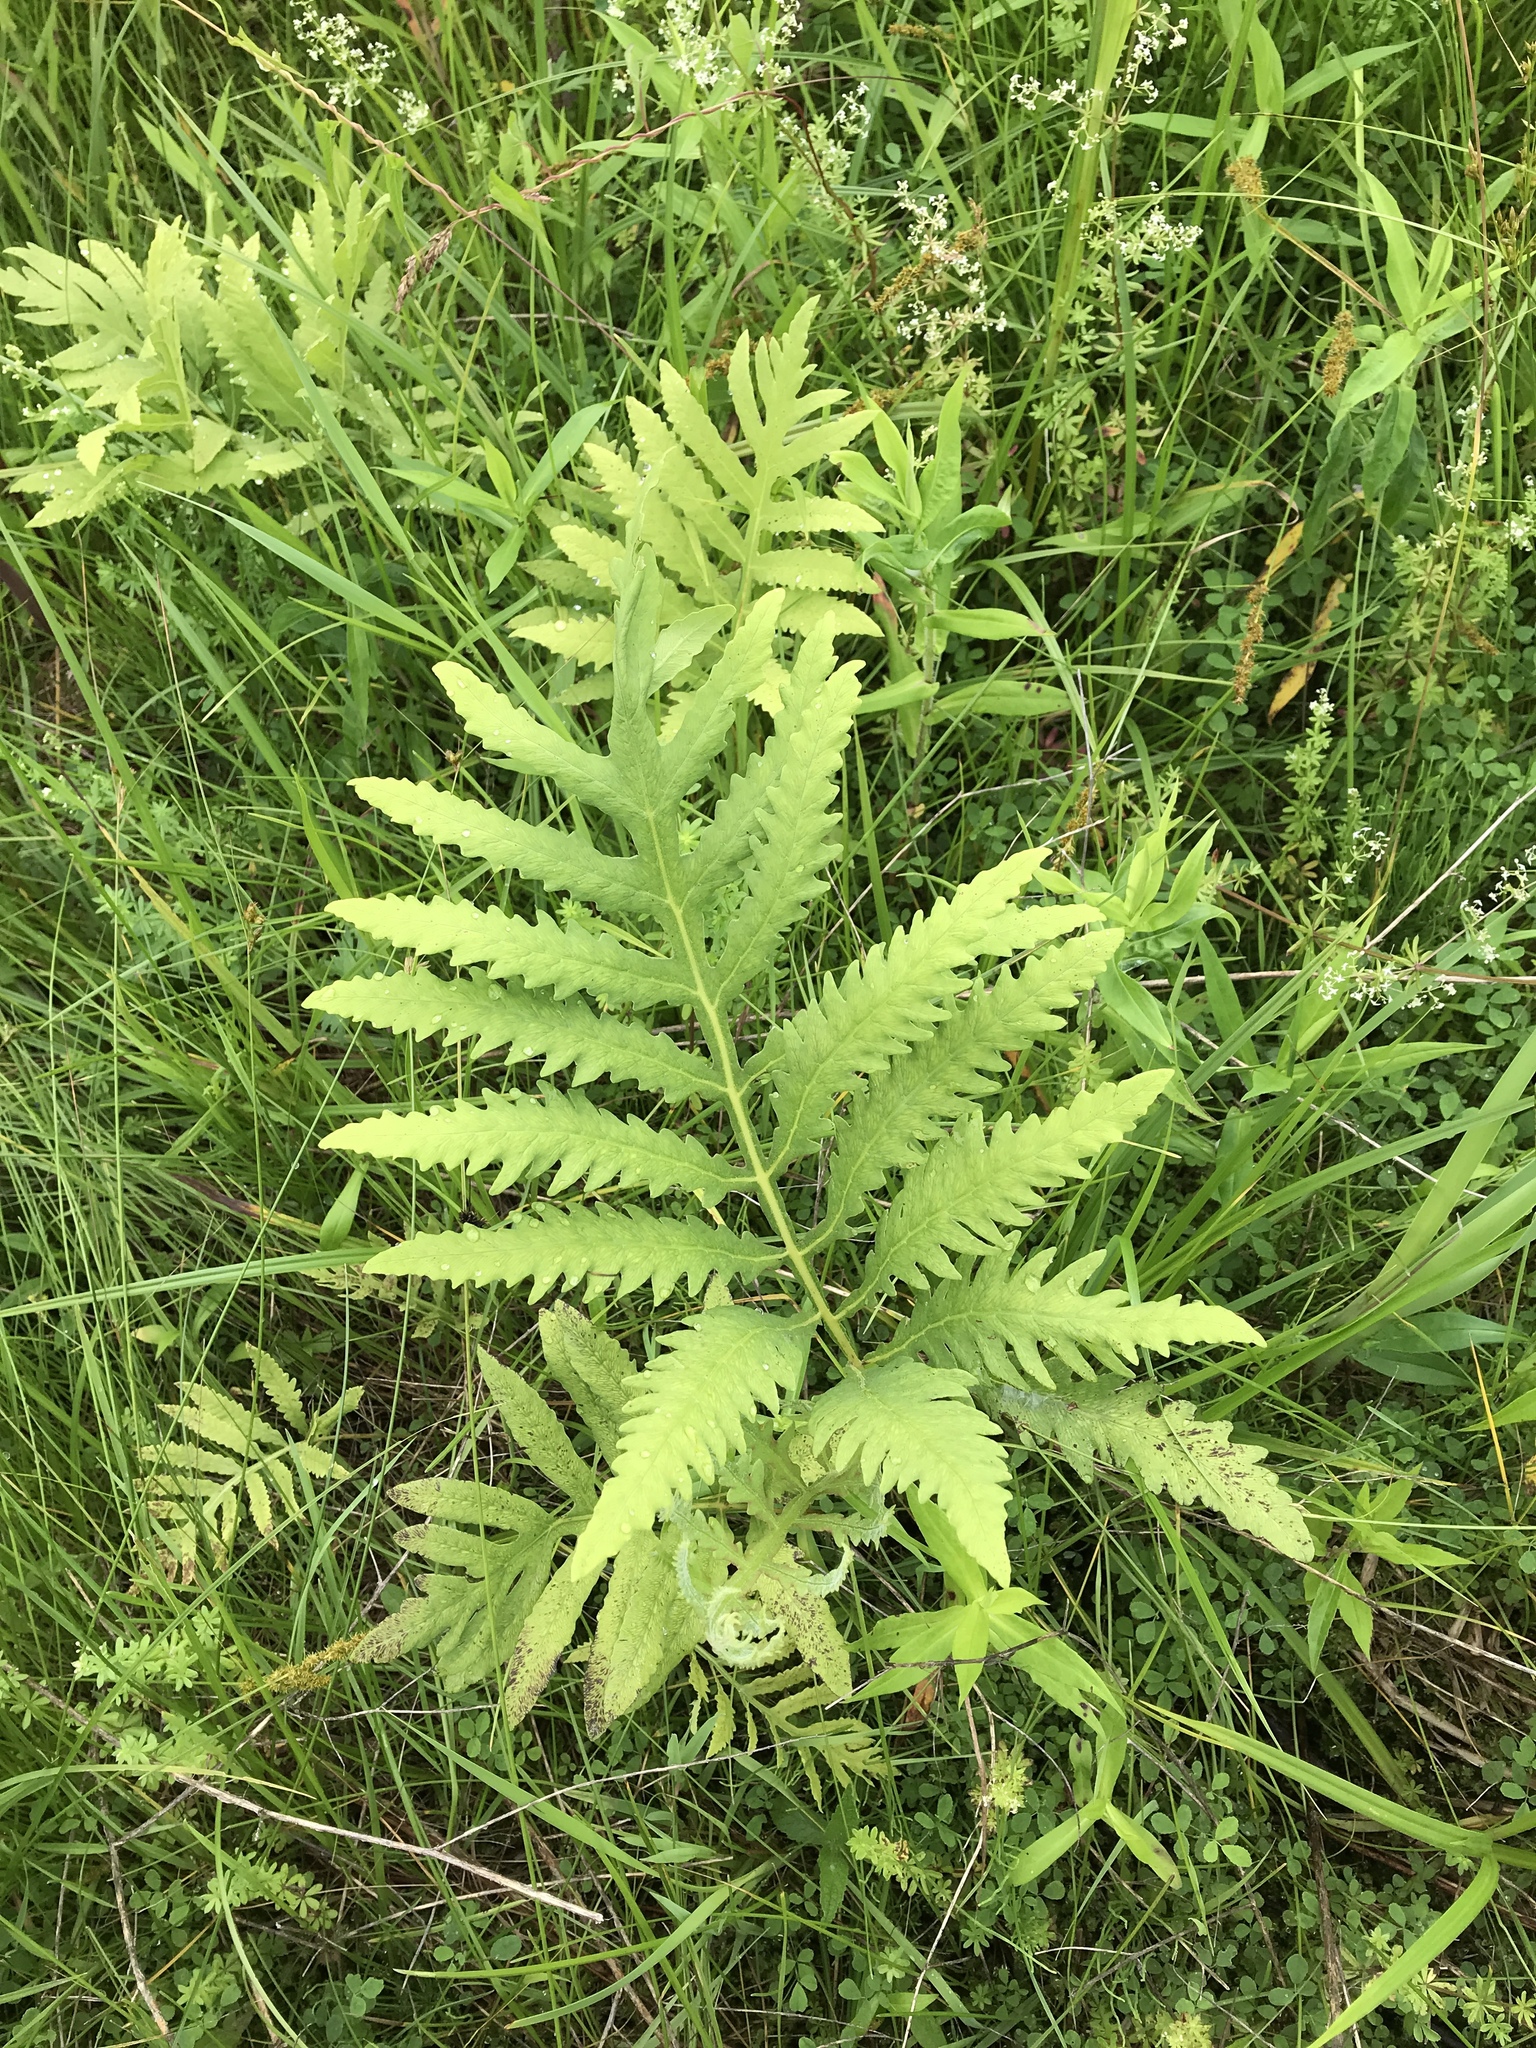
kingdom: Plantae
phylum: Tracheophyta
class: Polypodiopsida
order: Polypodiales
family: Onocleaceae
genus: Onoclea
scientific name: Onoclea sensibilis
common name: Sensitive fern
